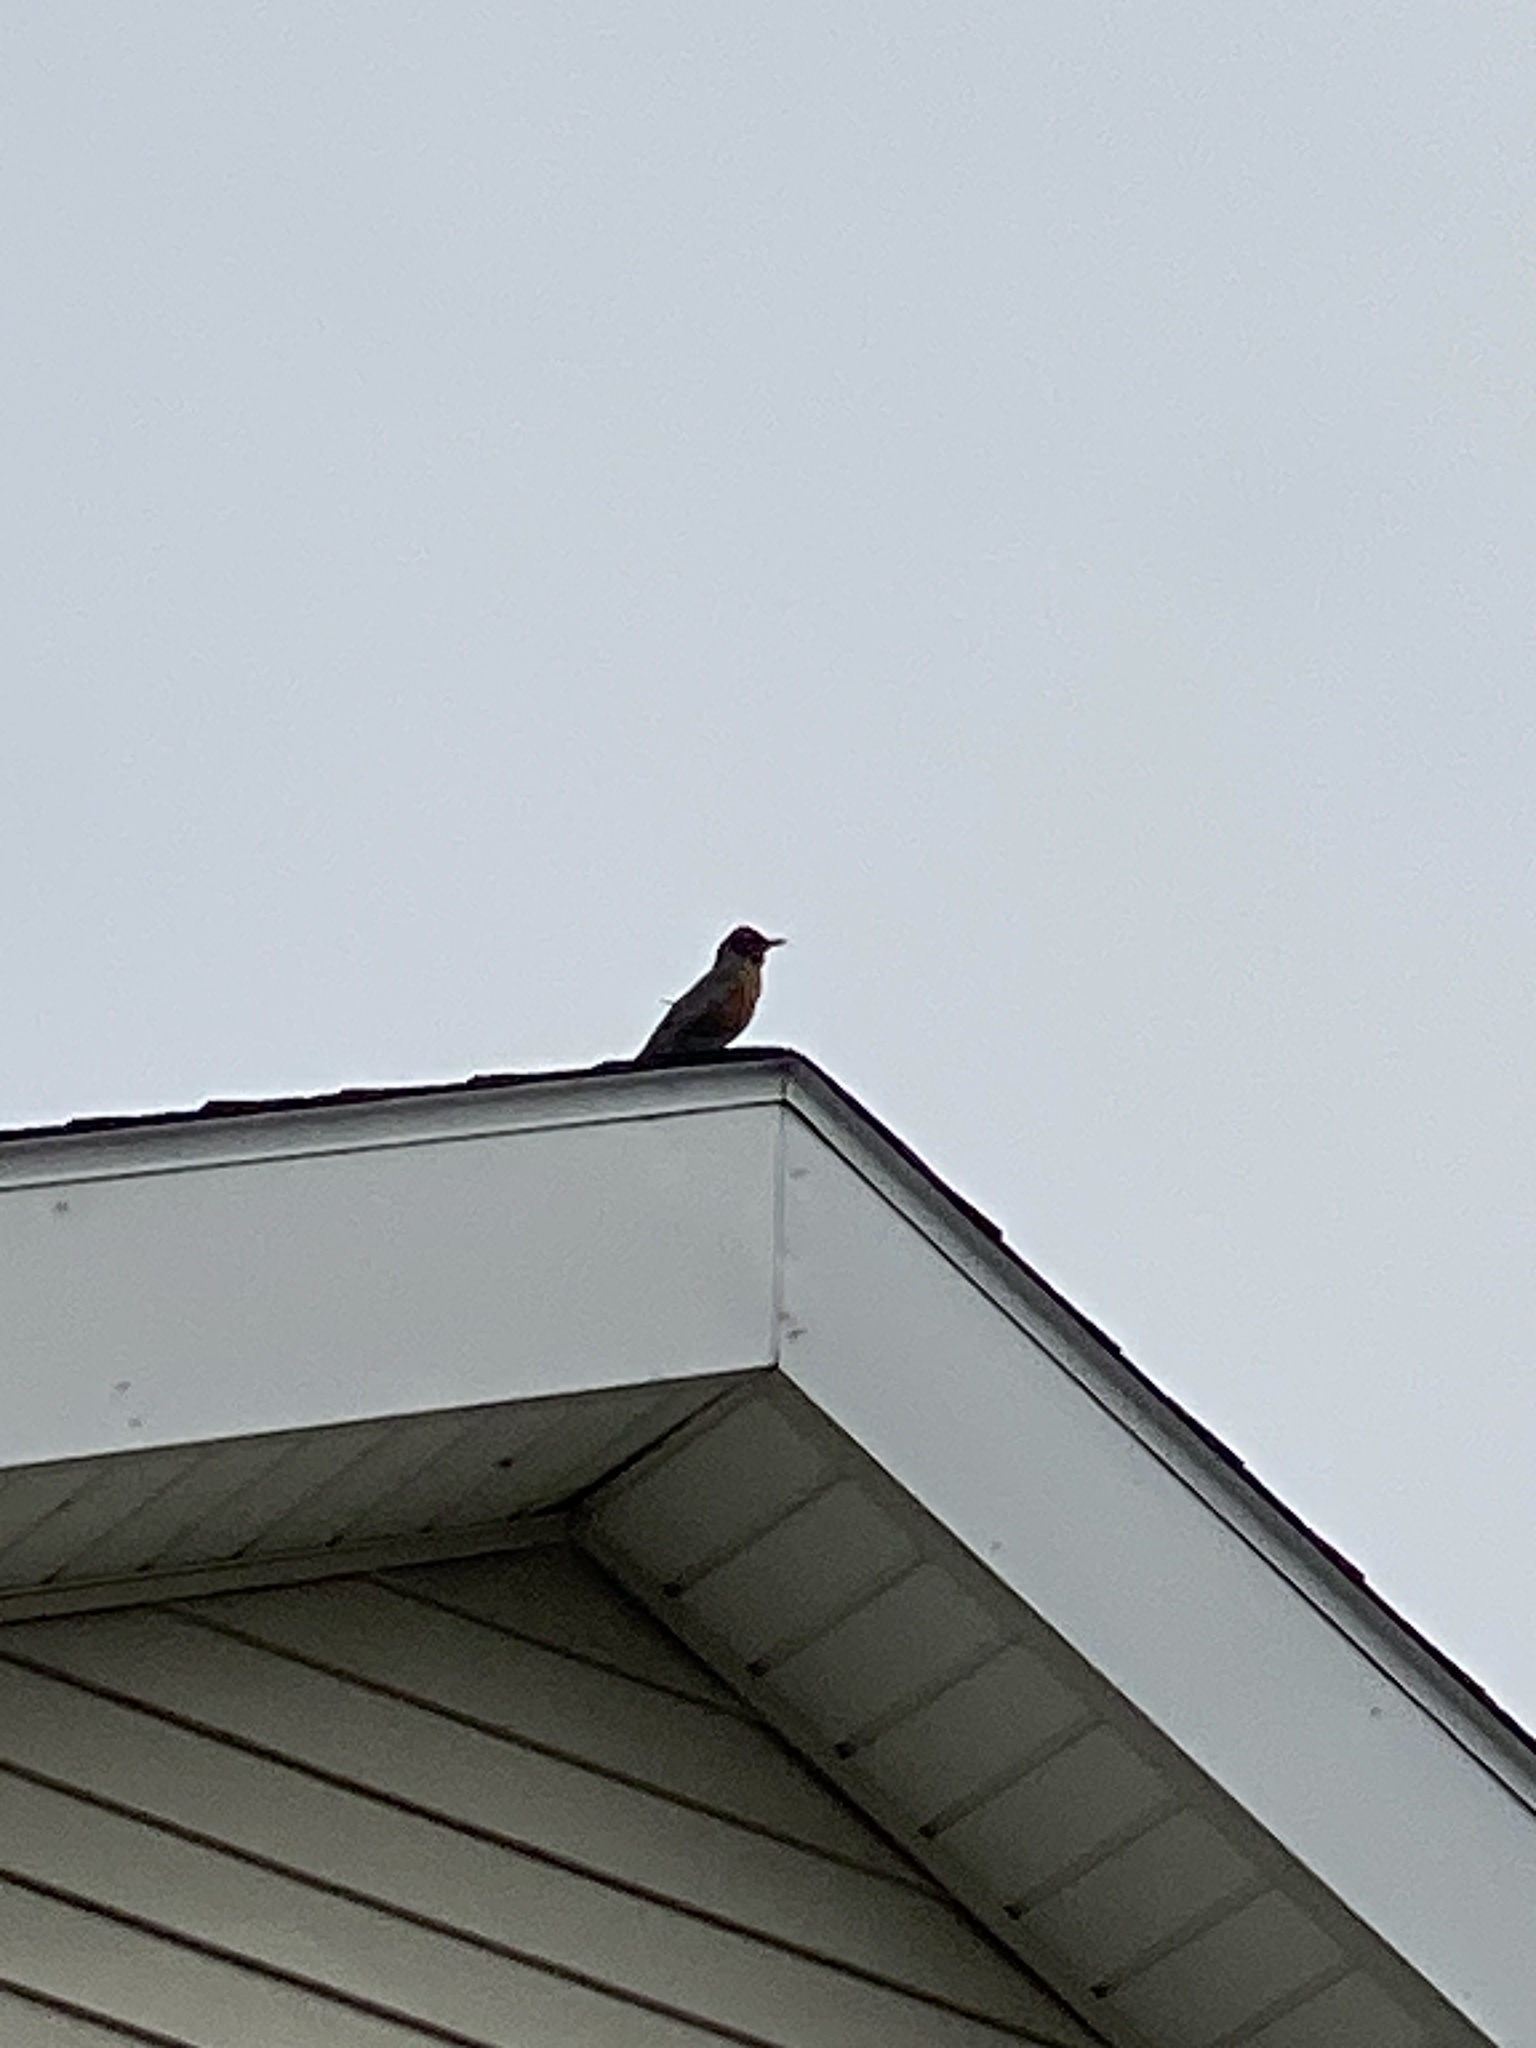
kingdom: Animalia
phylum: Chordata
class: Aves
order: Passeriformes
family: Turdidae
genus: Turdus
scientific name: Turdus migratorius
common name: American robin
